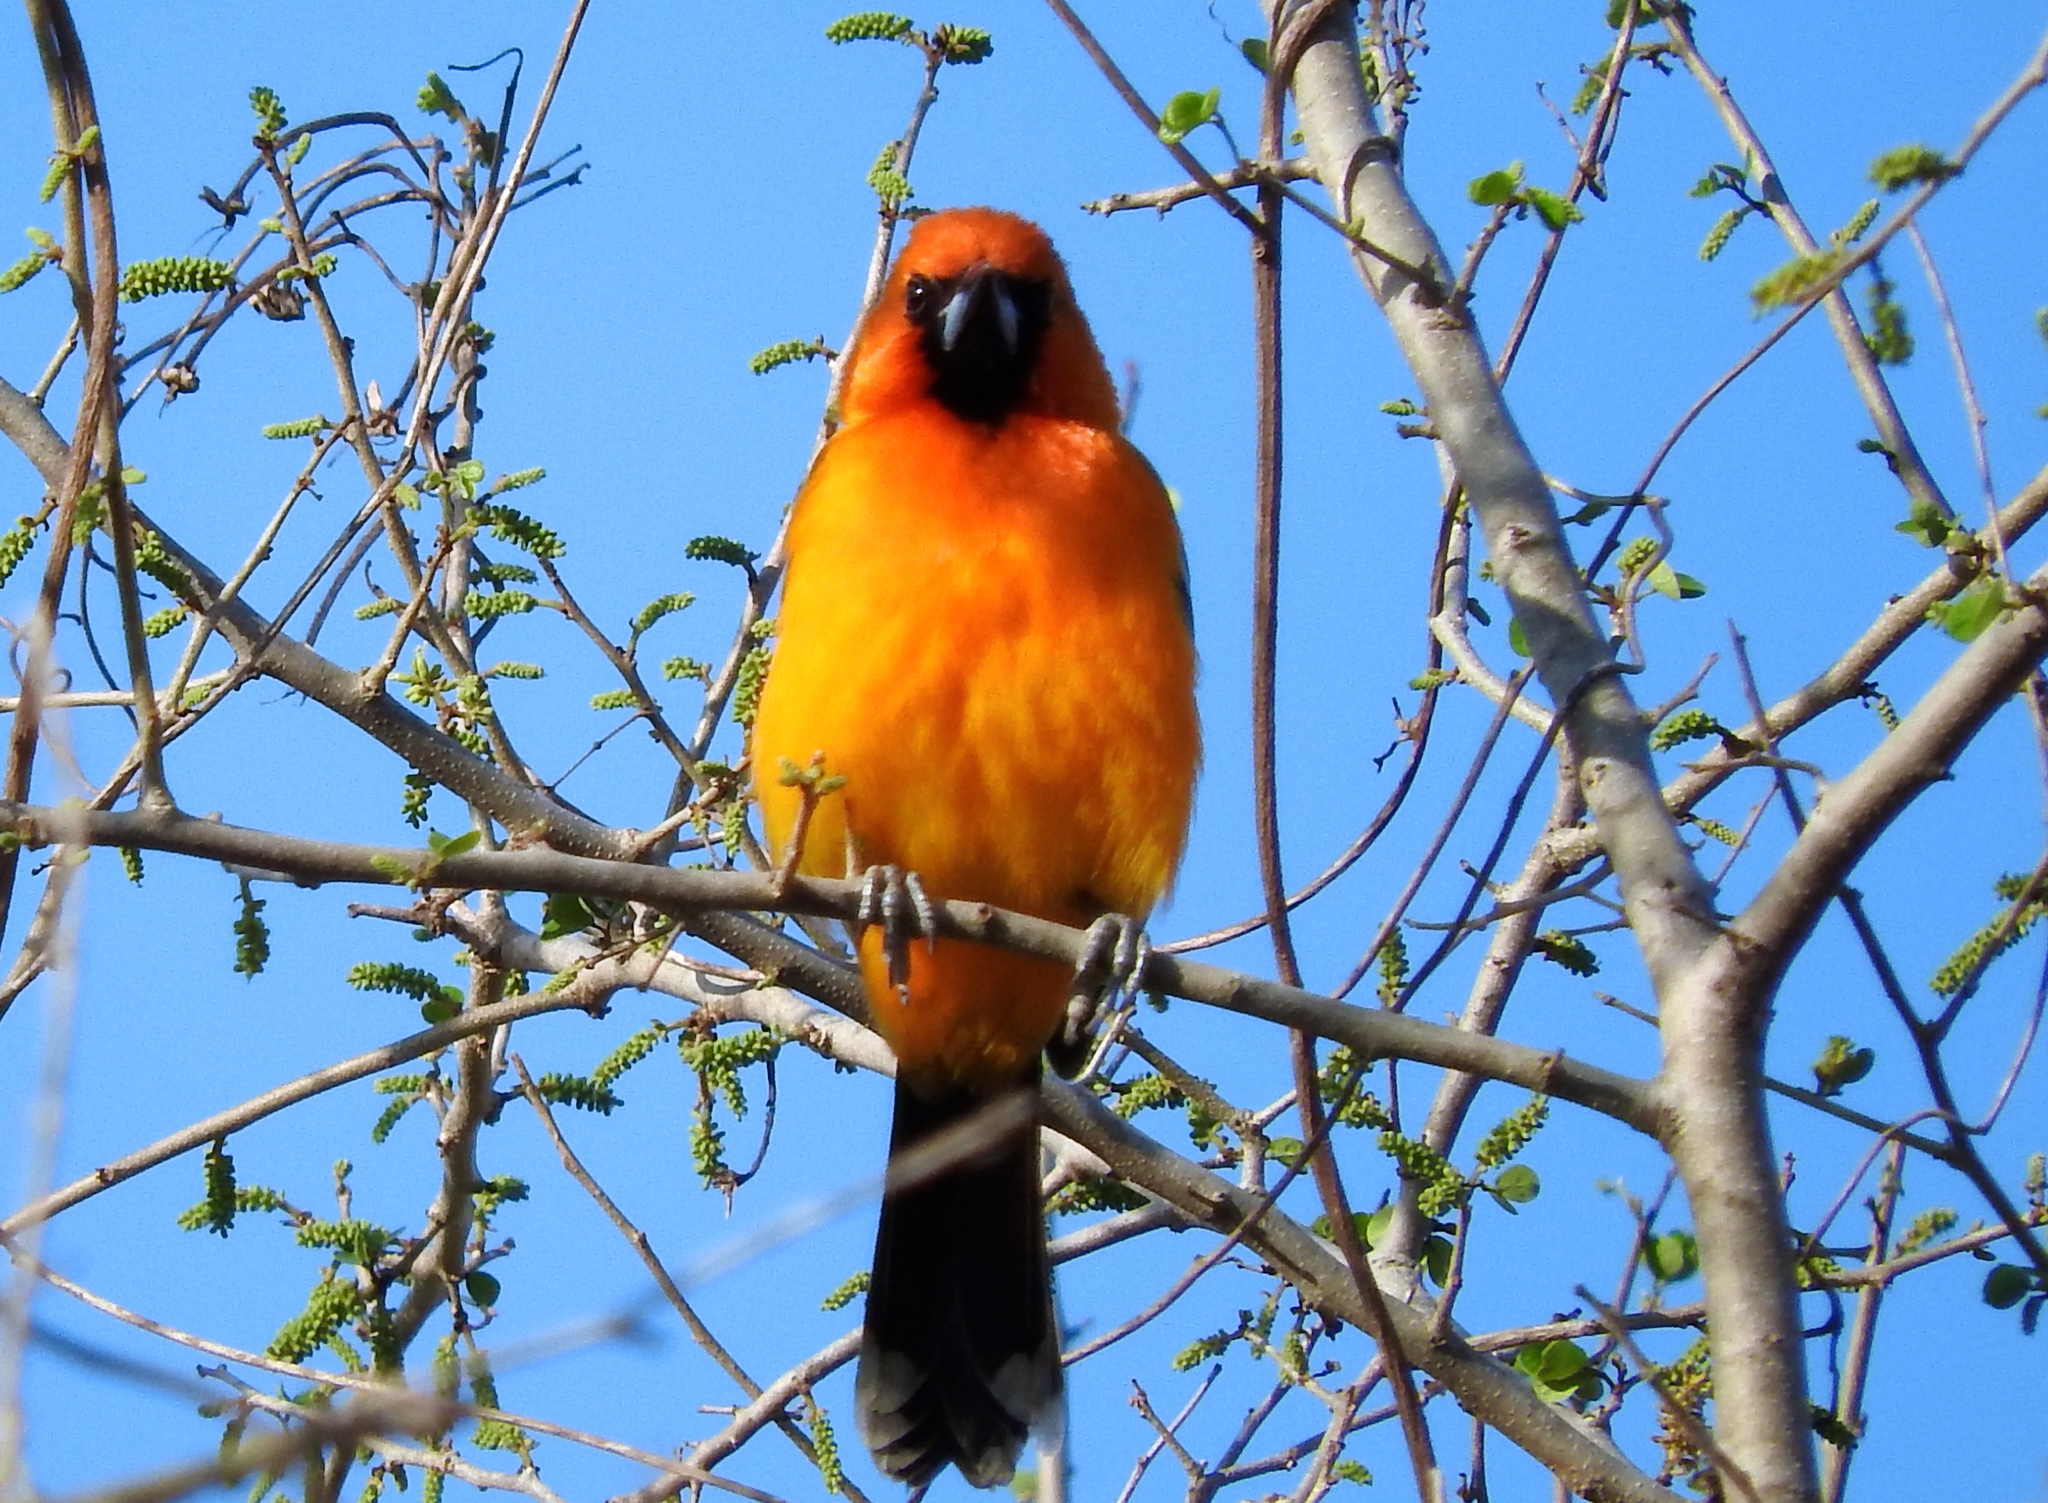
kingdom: Animalia
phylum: Chordata
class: Aves
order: Passeriformes
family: Icteridae
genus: Icterus
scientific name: Icterus pustulatus
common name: Streak-backed oriole
